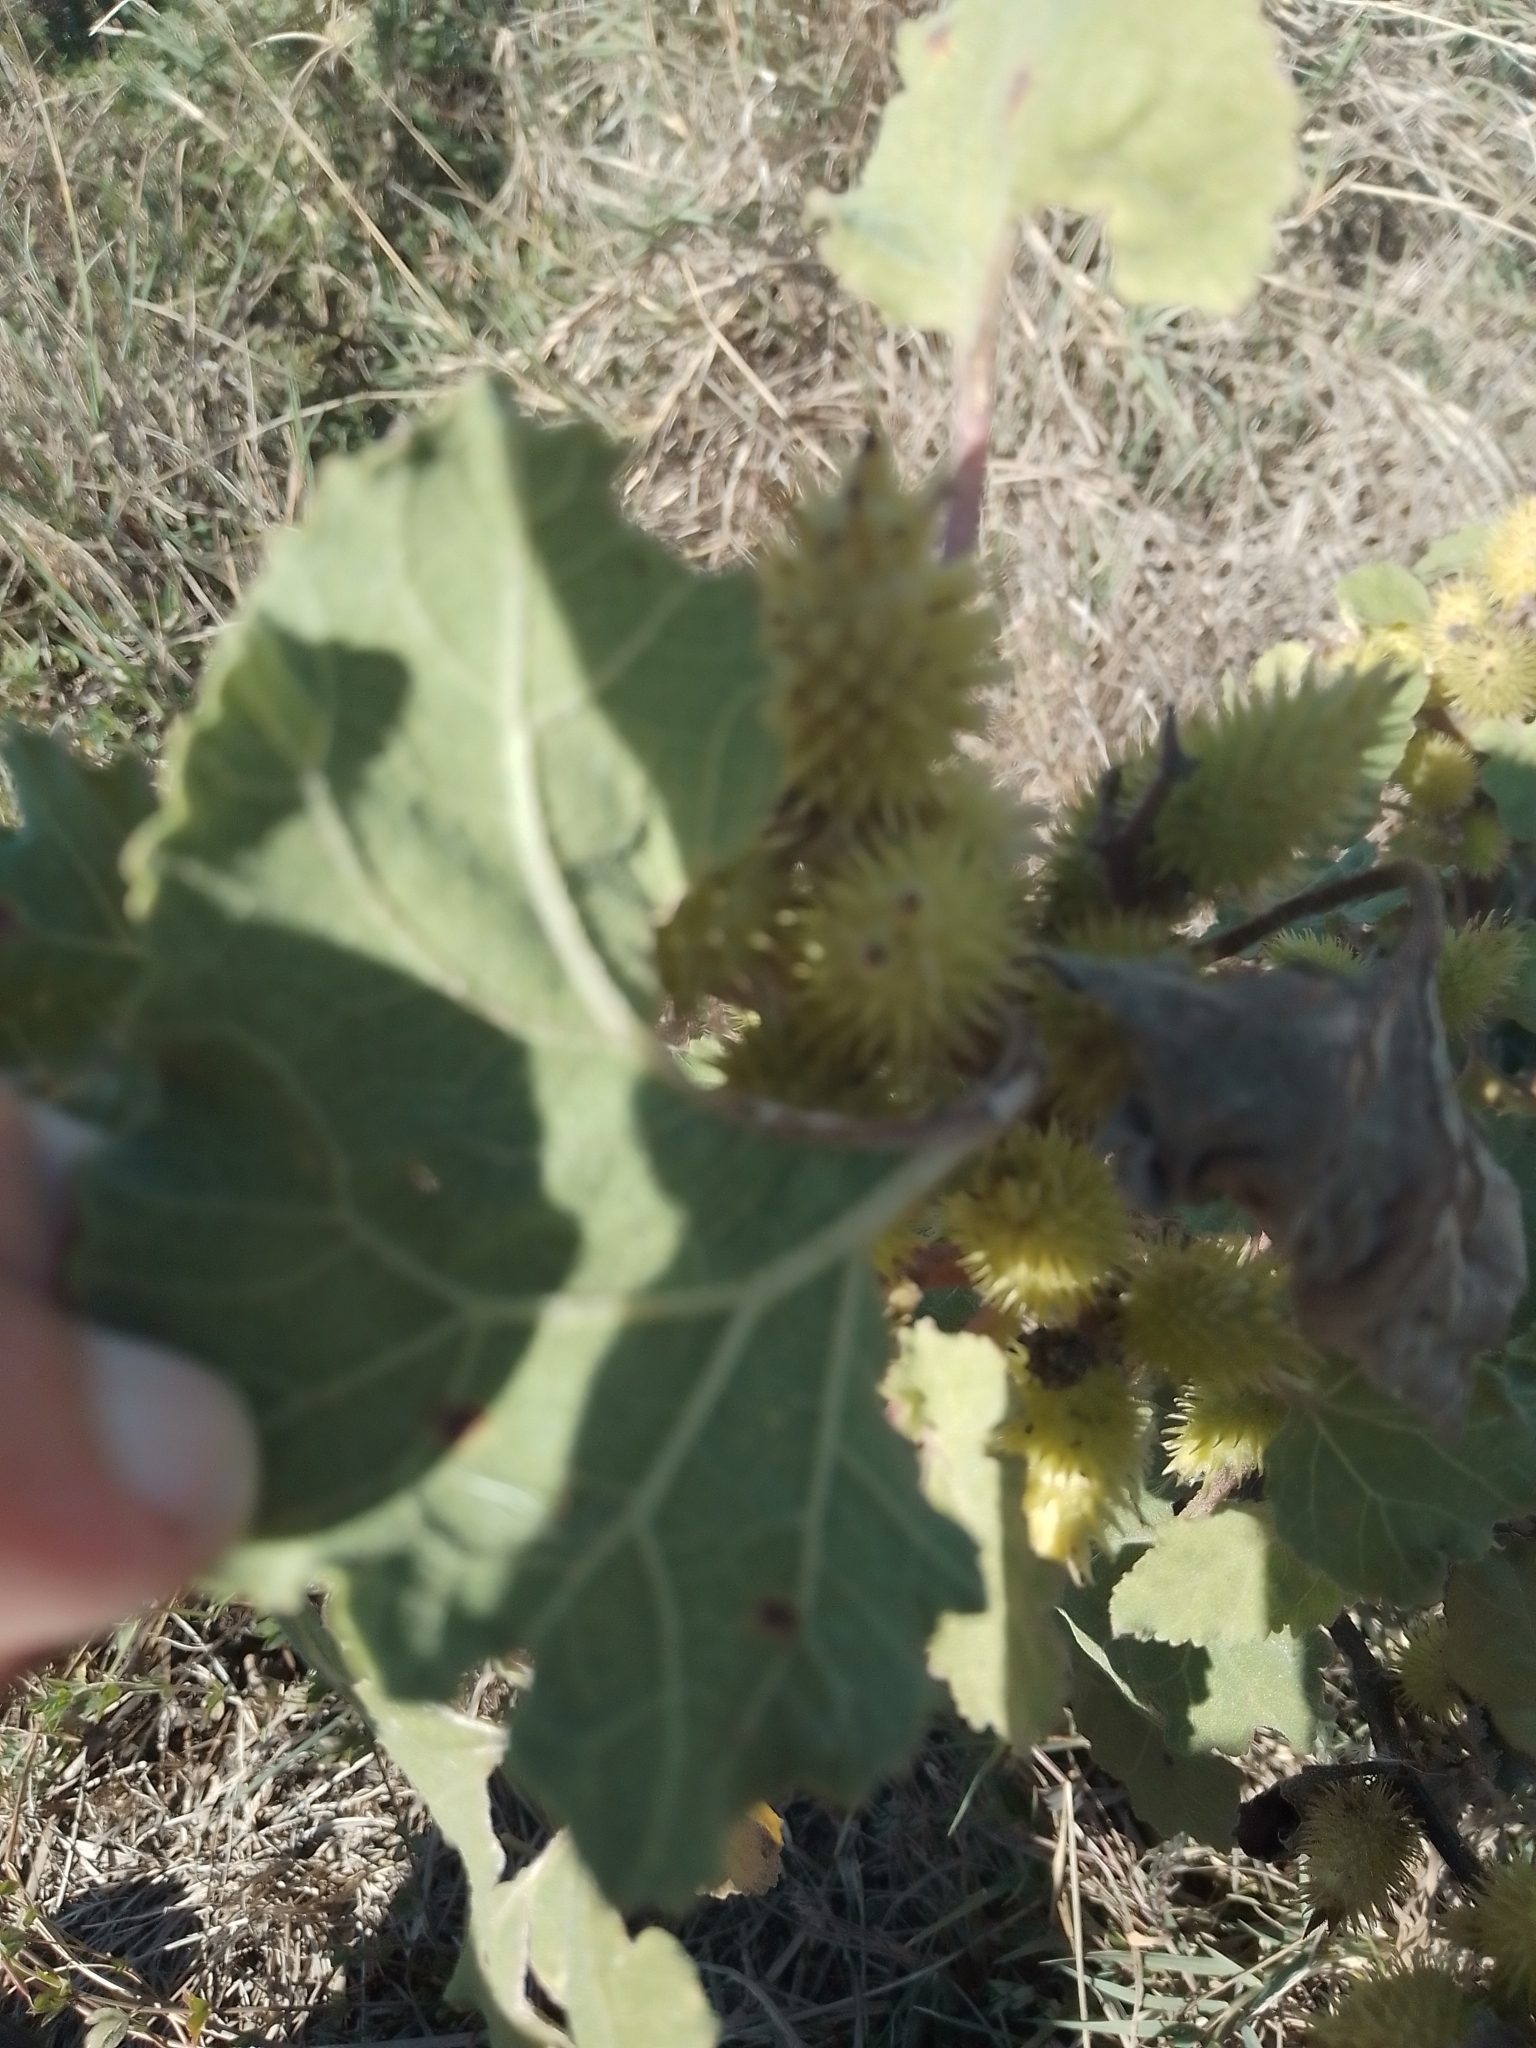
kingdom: Plantae
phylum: Tracheophyta
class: Magnoliopsida
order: Asterales
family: Asteraceae
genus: Xanthium
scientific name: Xanthium strumarium
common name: Rough cocklebur
